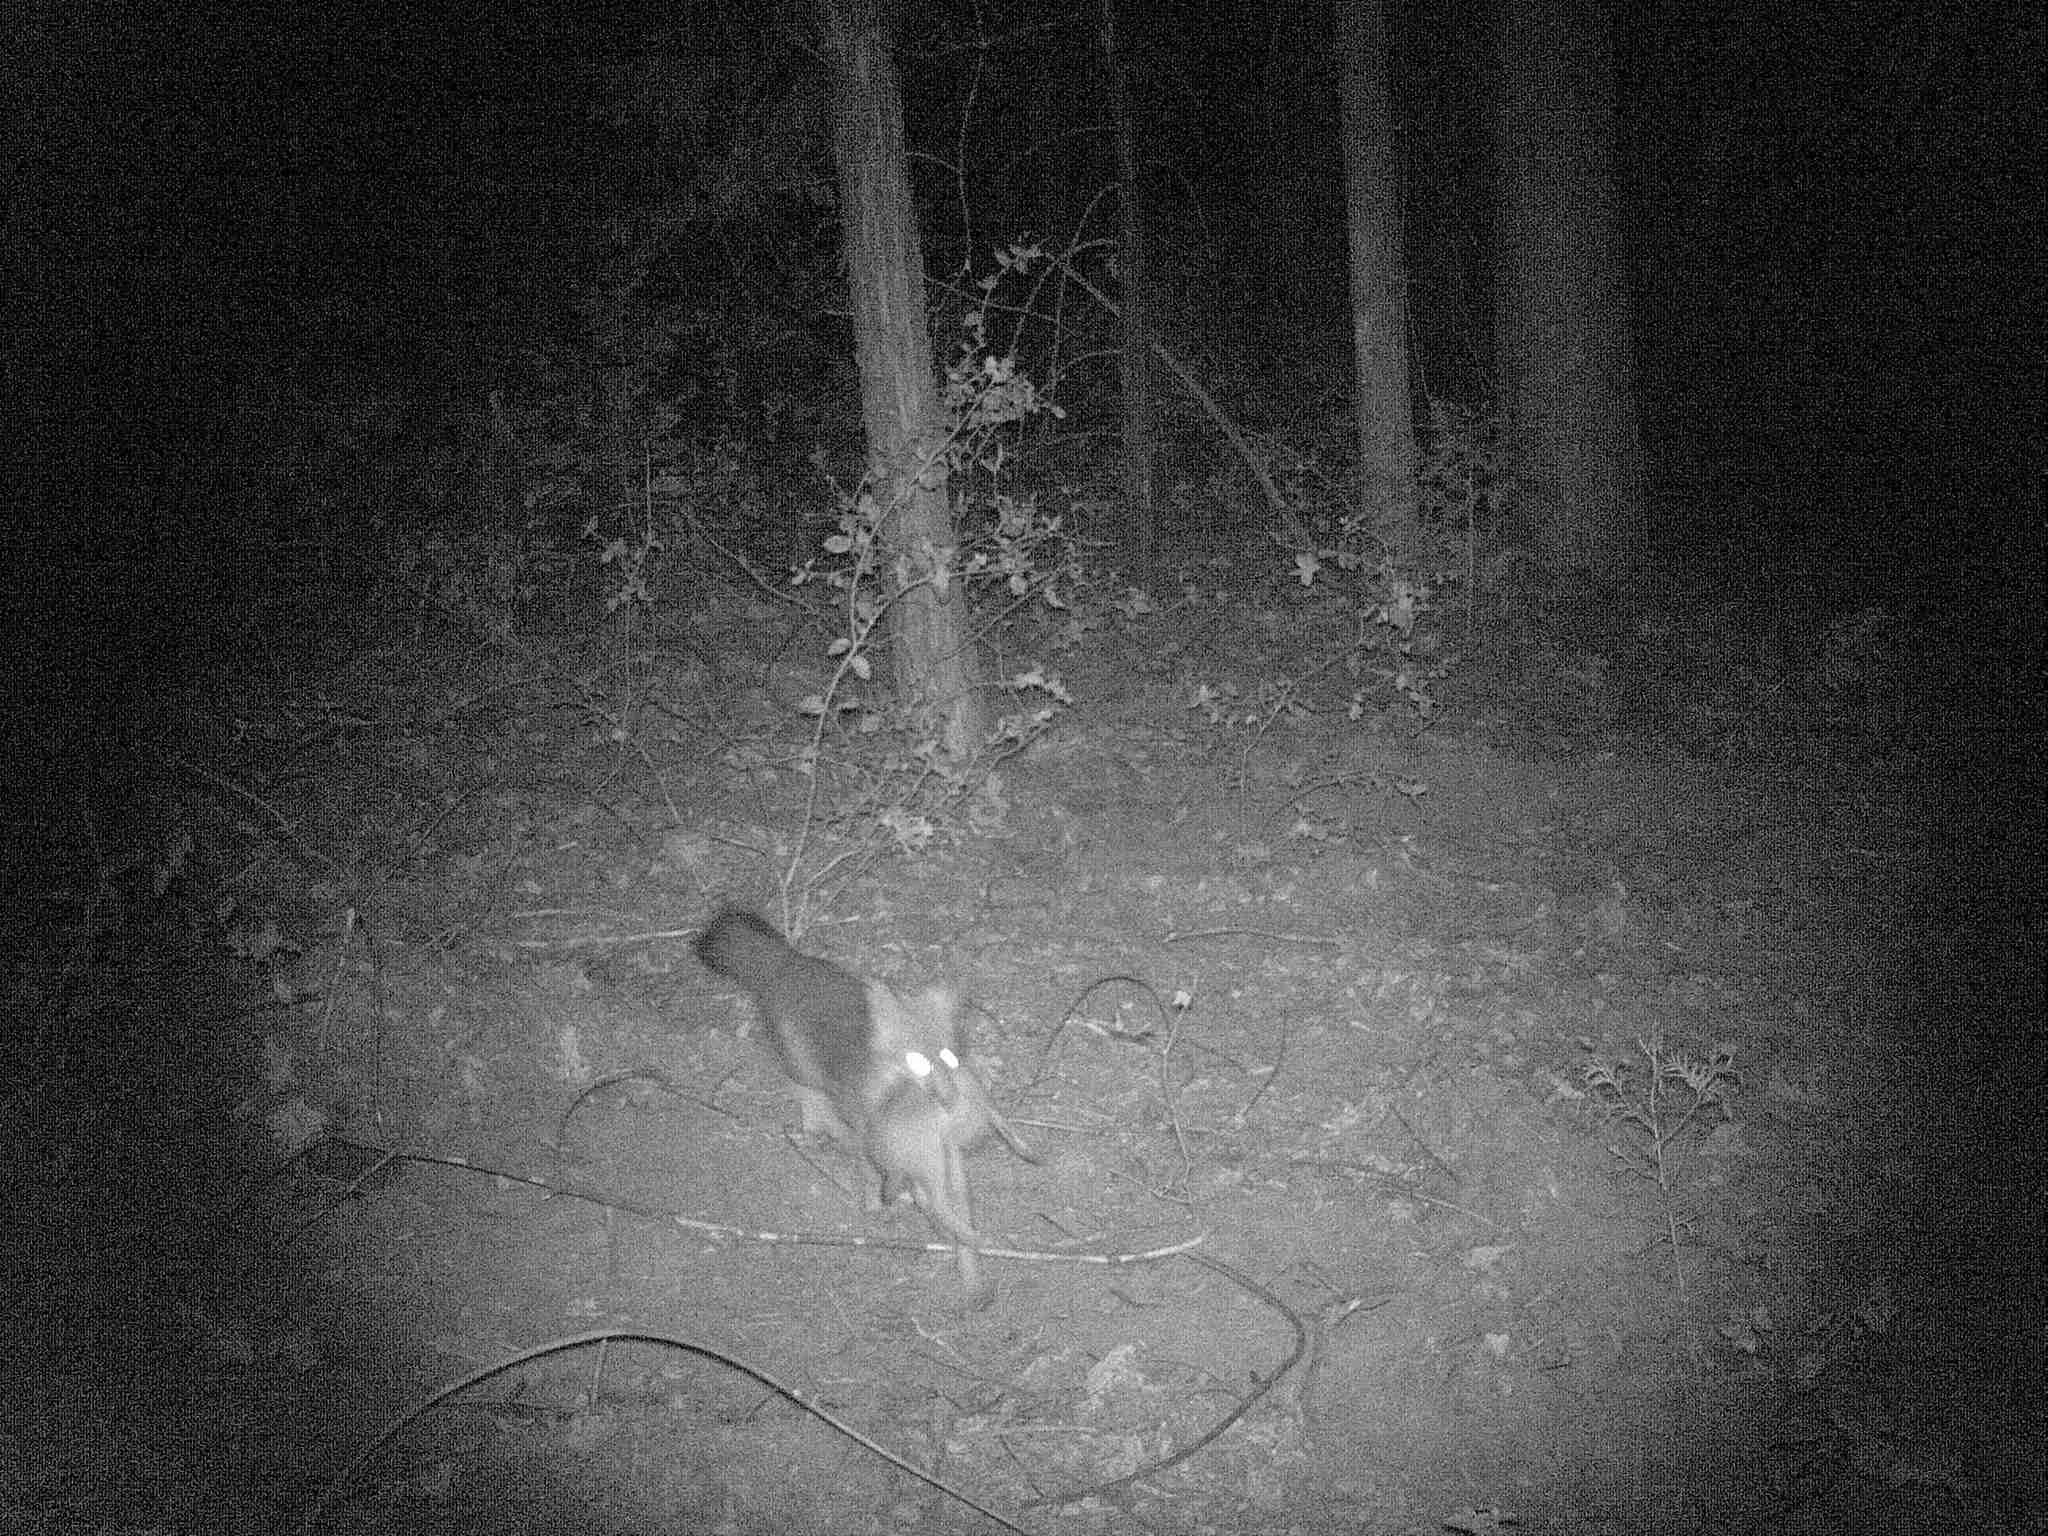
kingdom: Animalia
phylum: Chordata
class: Mammalia
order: Carnivora
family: Canidae
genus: Urocyon
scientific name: Urocyon cinereoargenteus
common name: Gray fox
